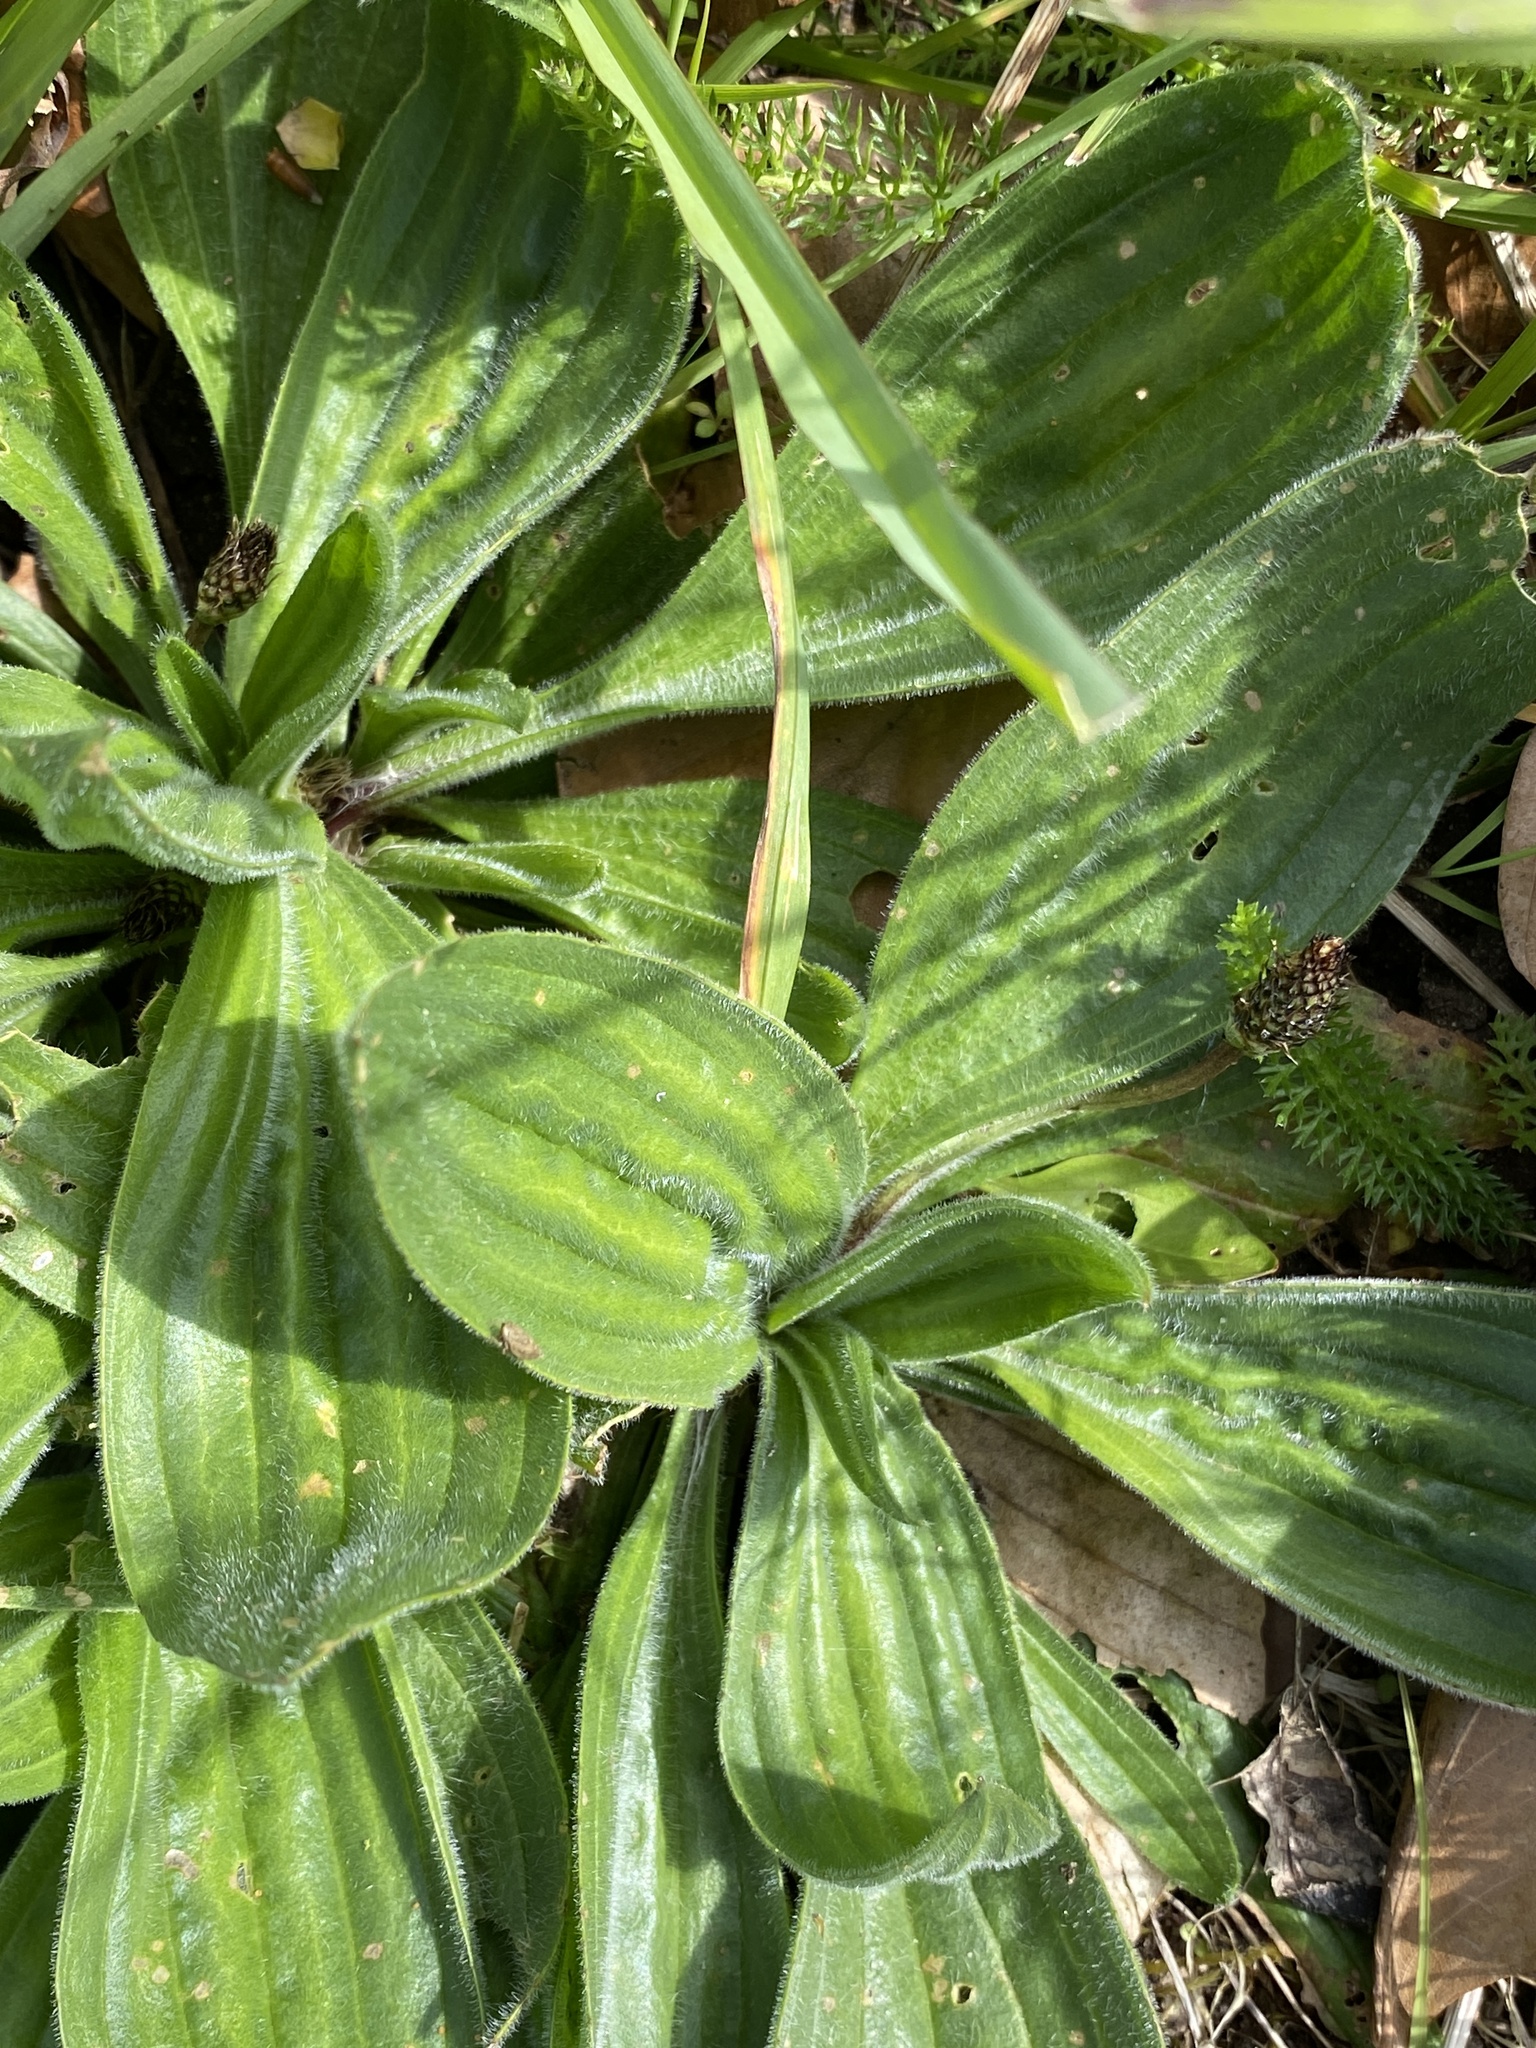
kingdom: Plantae
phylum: Tracheophyta
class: Magnoliopsida
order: Lamiales
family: Plantaginaceae
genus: Plantago
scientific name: Plantago media
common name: Hoary plantain
